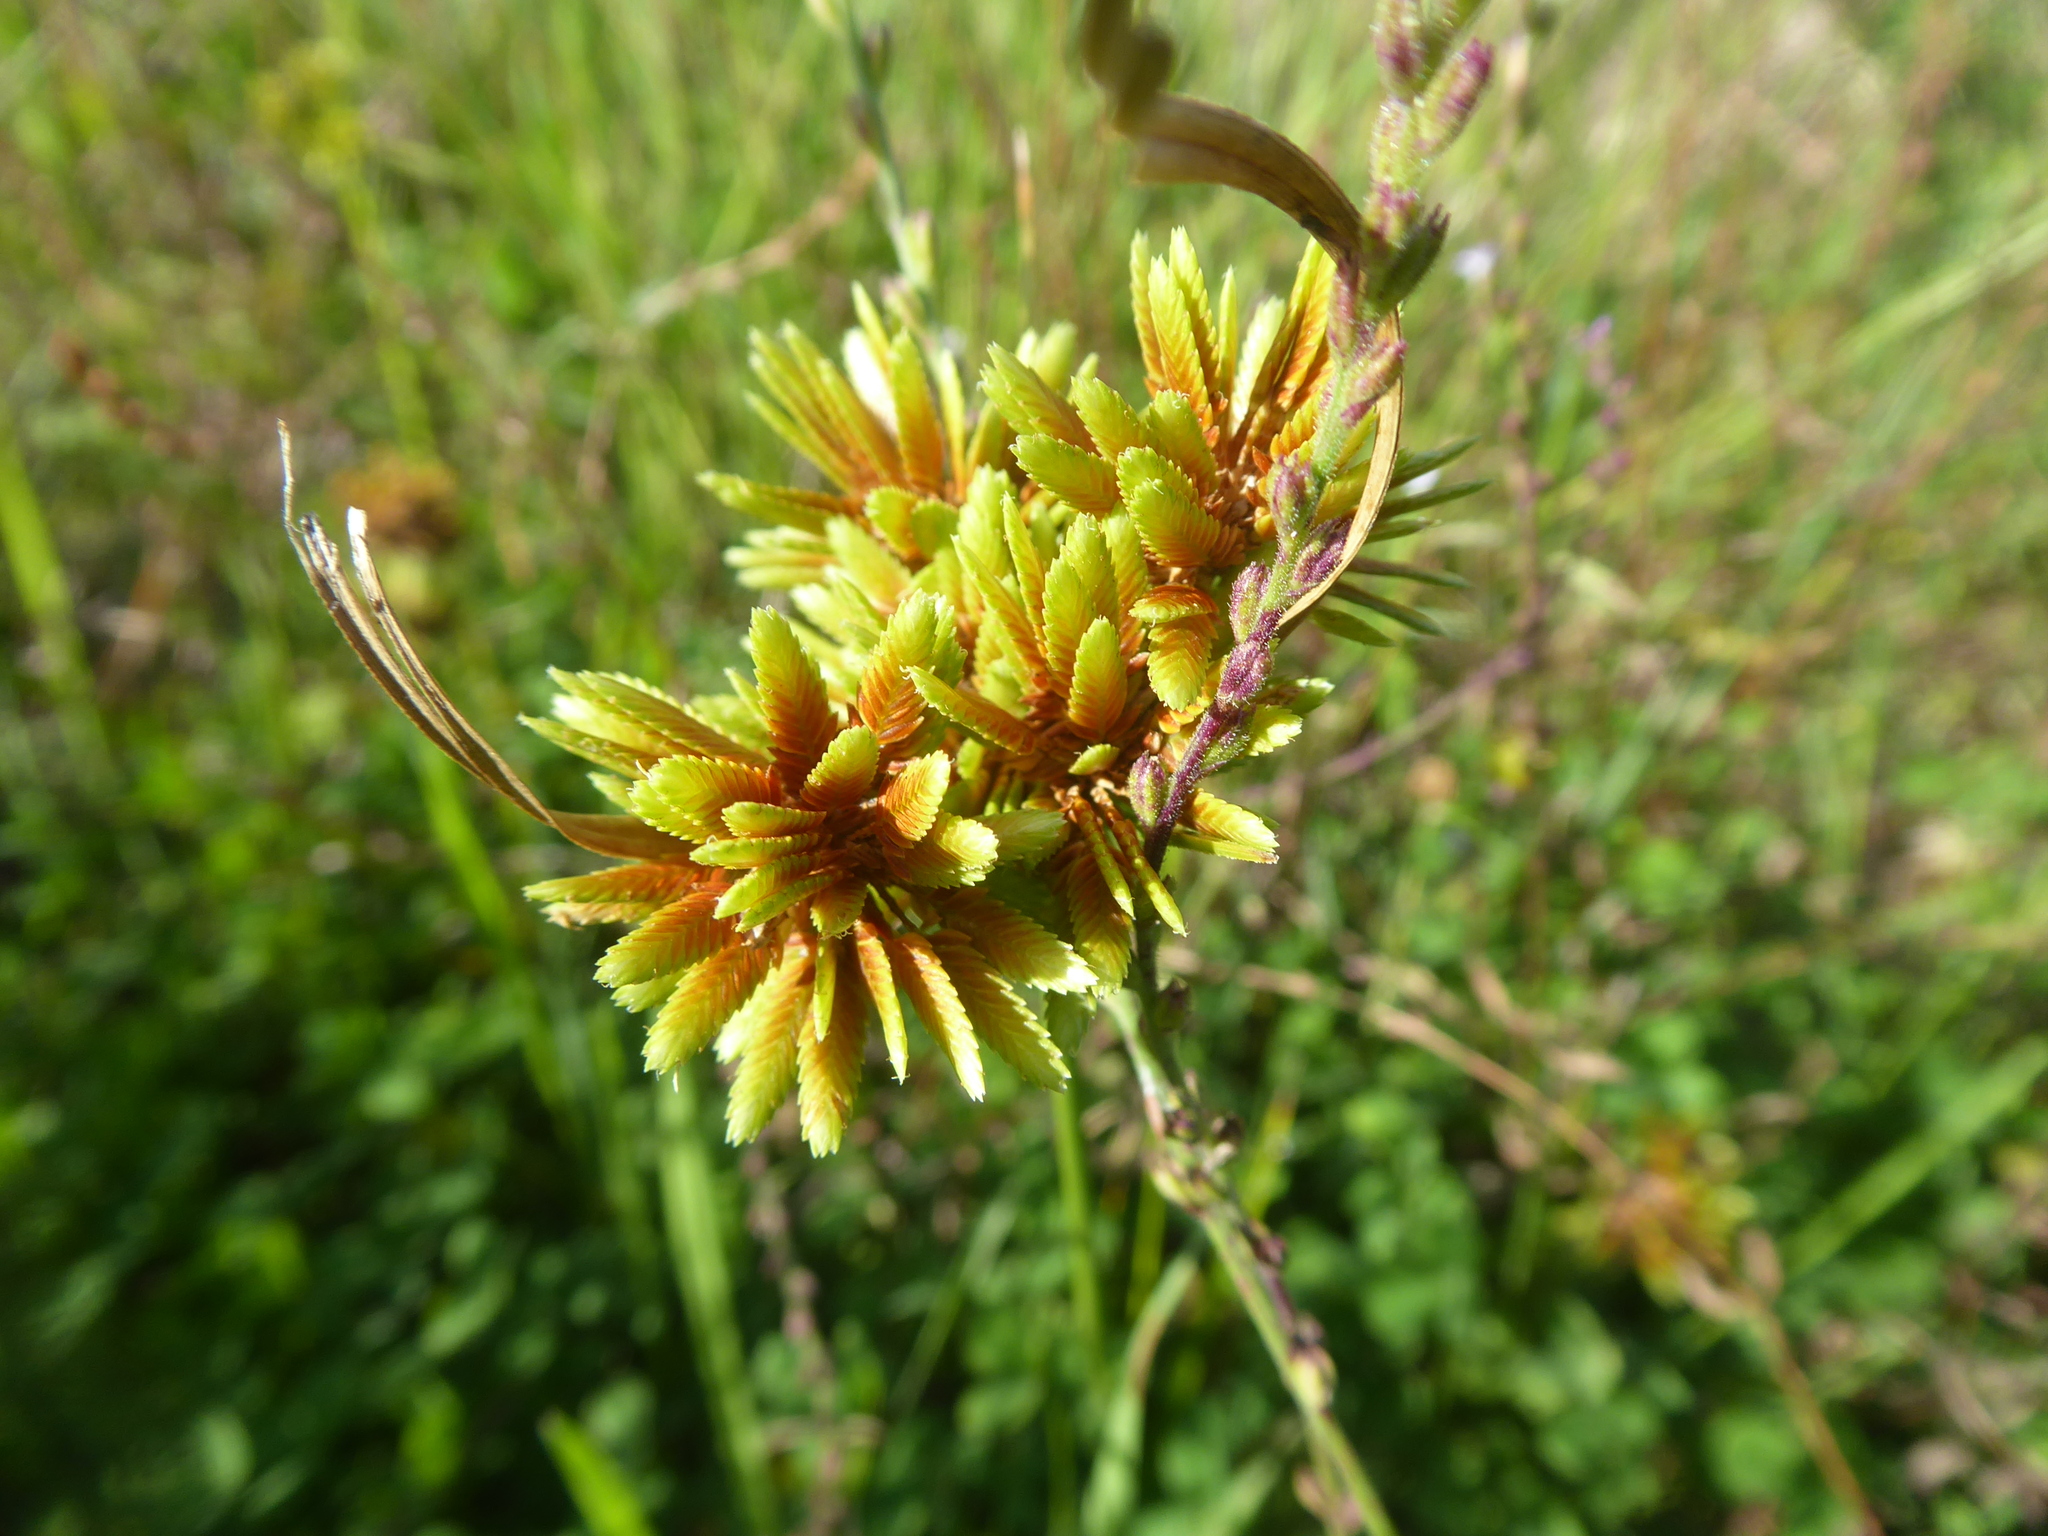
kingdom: Plantae
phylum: Tracheophyta
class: Liliopsida
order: Poales
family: Cyperaceae
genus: Cyperus
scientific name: Cyperus eragrostis
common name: Tall flatsedge
